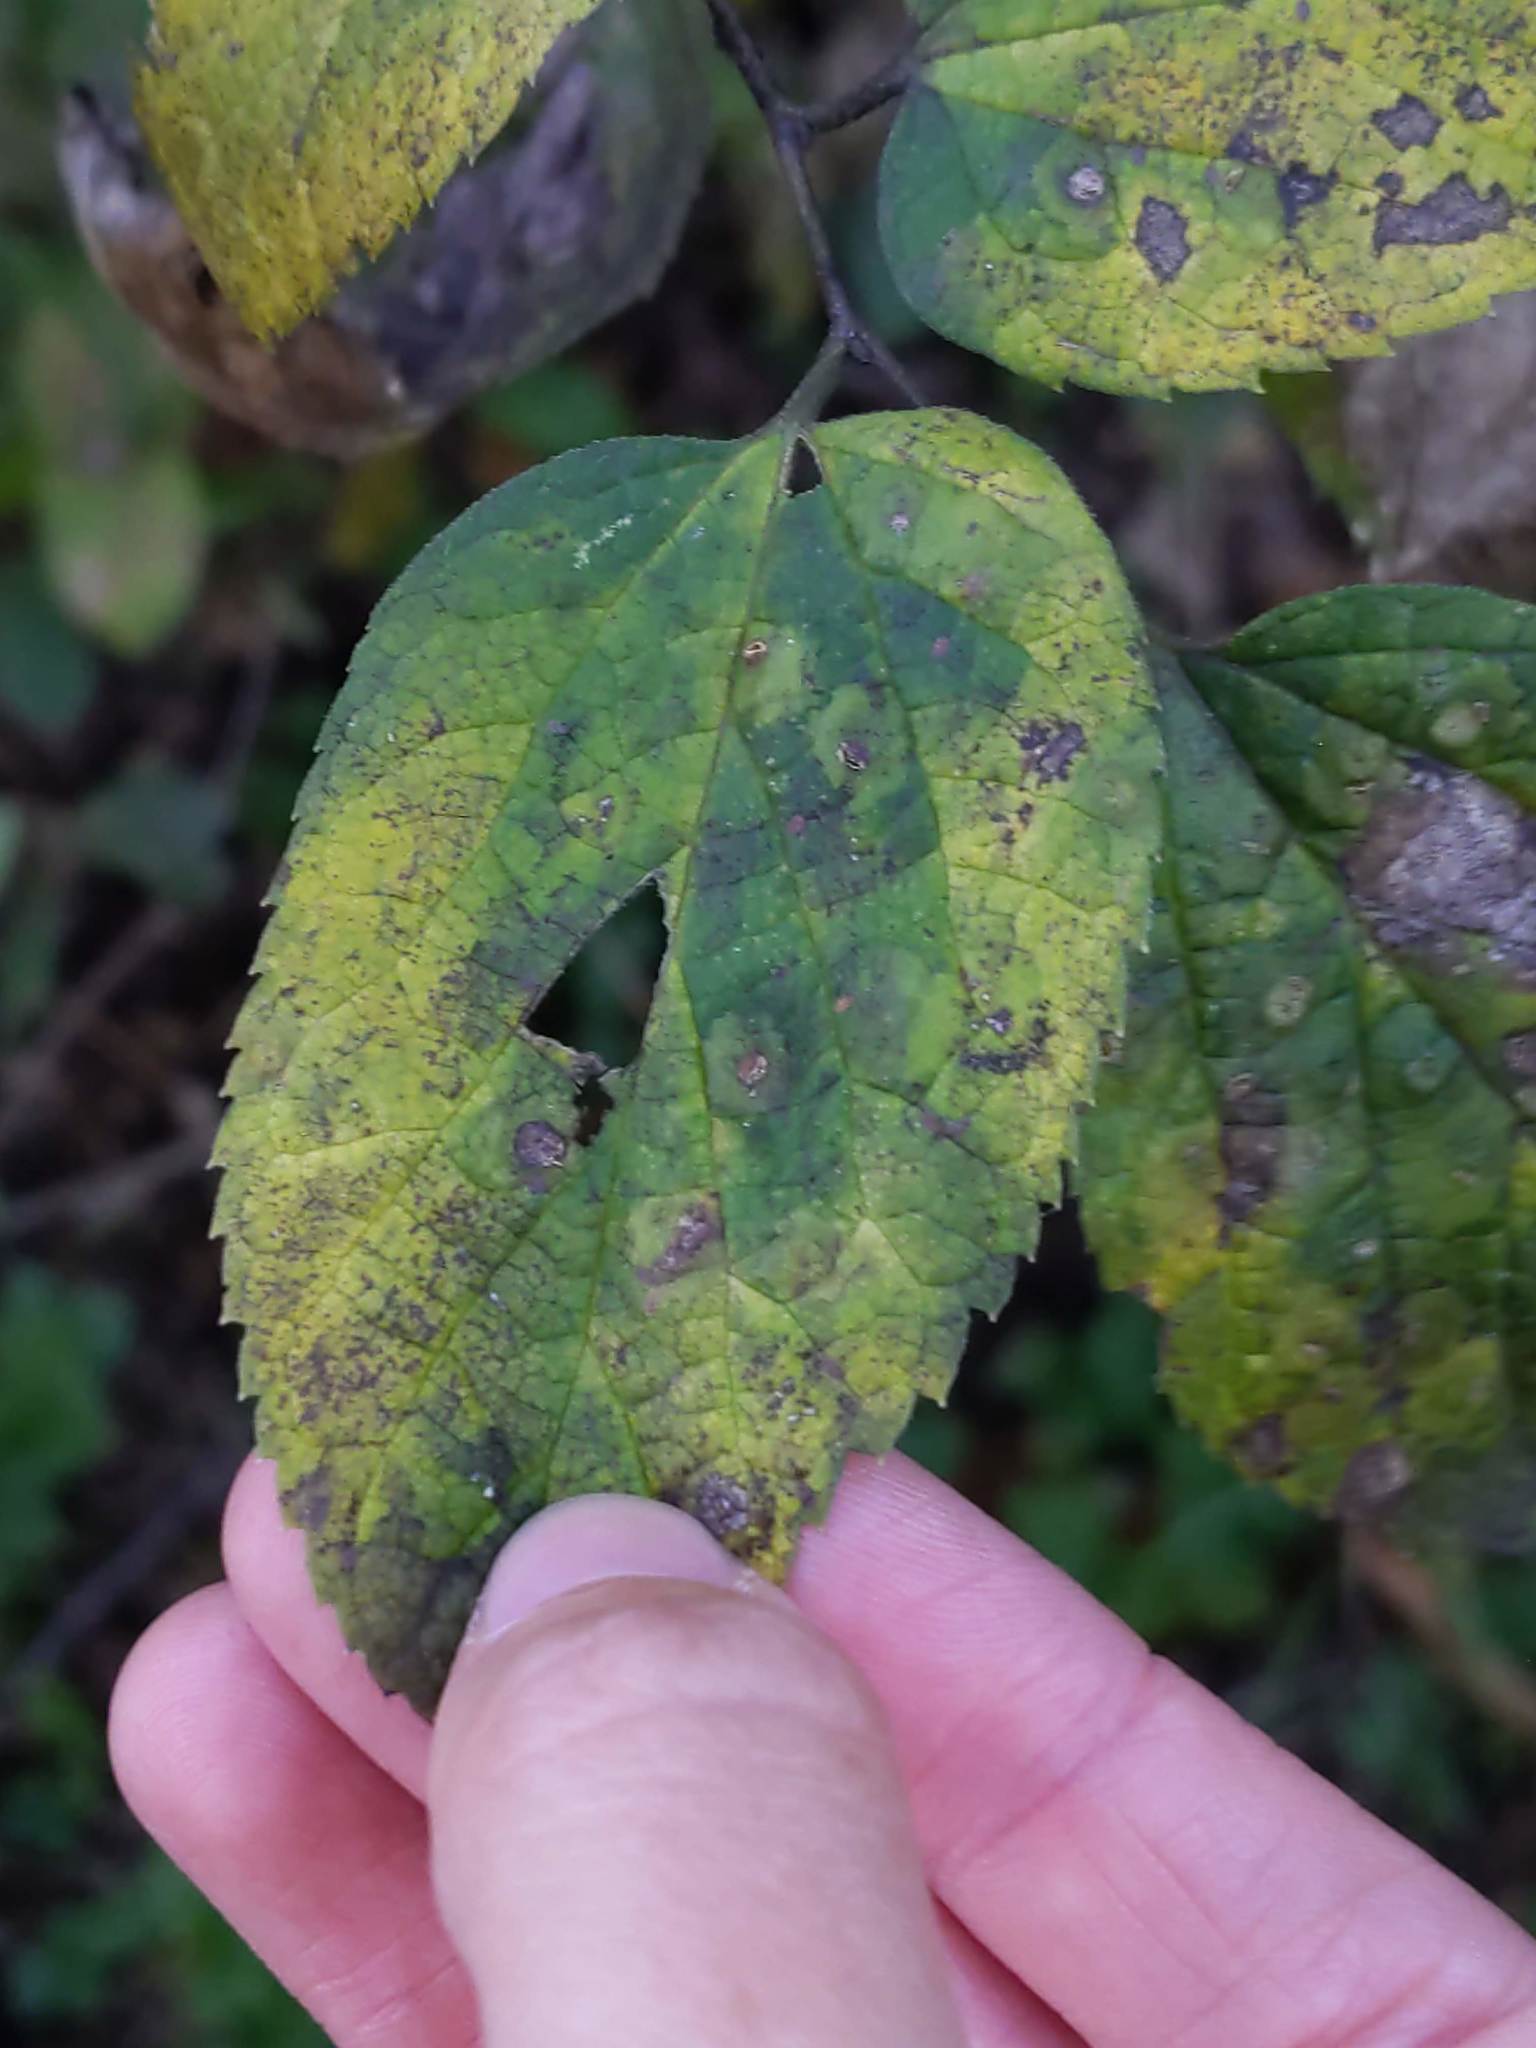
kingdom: Animalia
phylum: Arthropoda
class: Insecta
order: Hemiptera
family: Aphalaridae
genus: Pachypsylla
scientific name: Pachypsylla celtidisvesicula
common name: Hackberry blister gall psyllid
